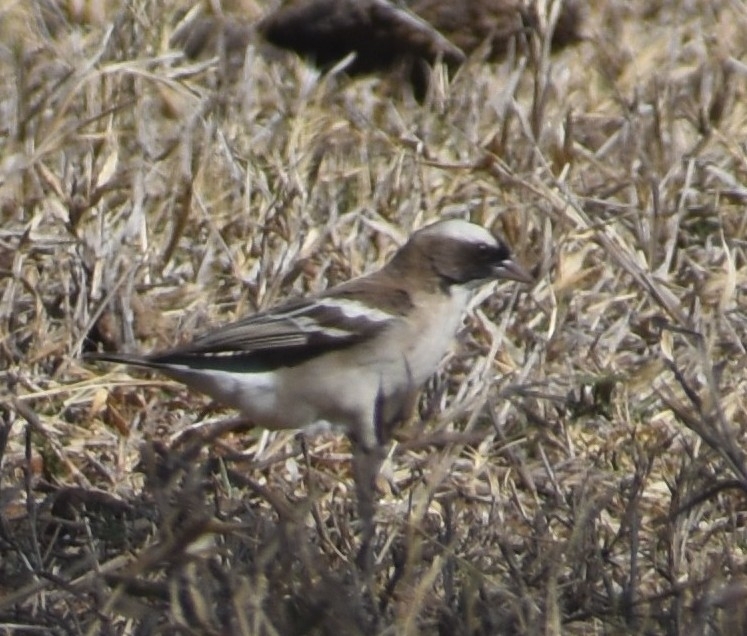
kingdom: Animalia
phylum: Chordata
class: Aves
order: Passeriformes
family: Passeridae
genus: Plocepasser
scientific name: Plocepasser mahali
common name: White-browed sparrow-weaver
